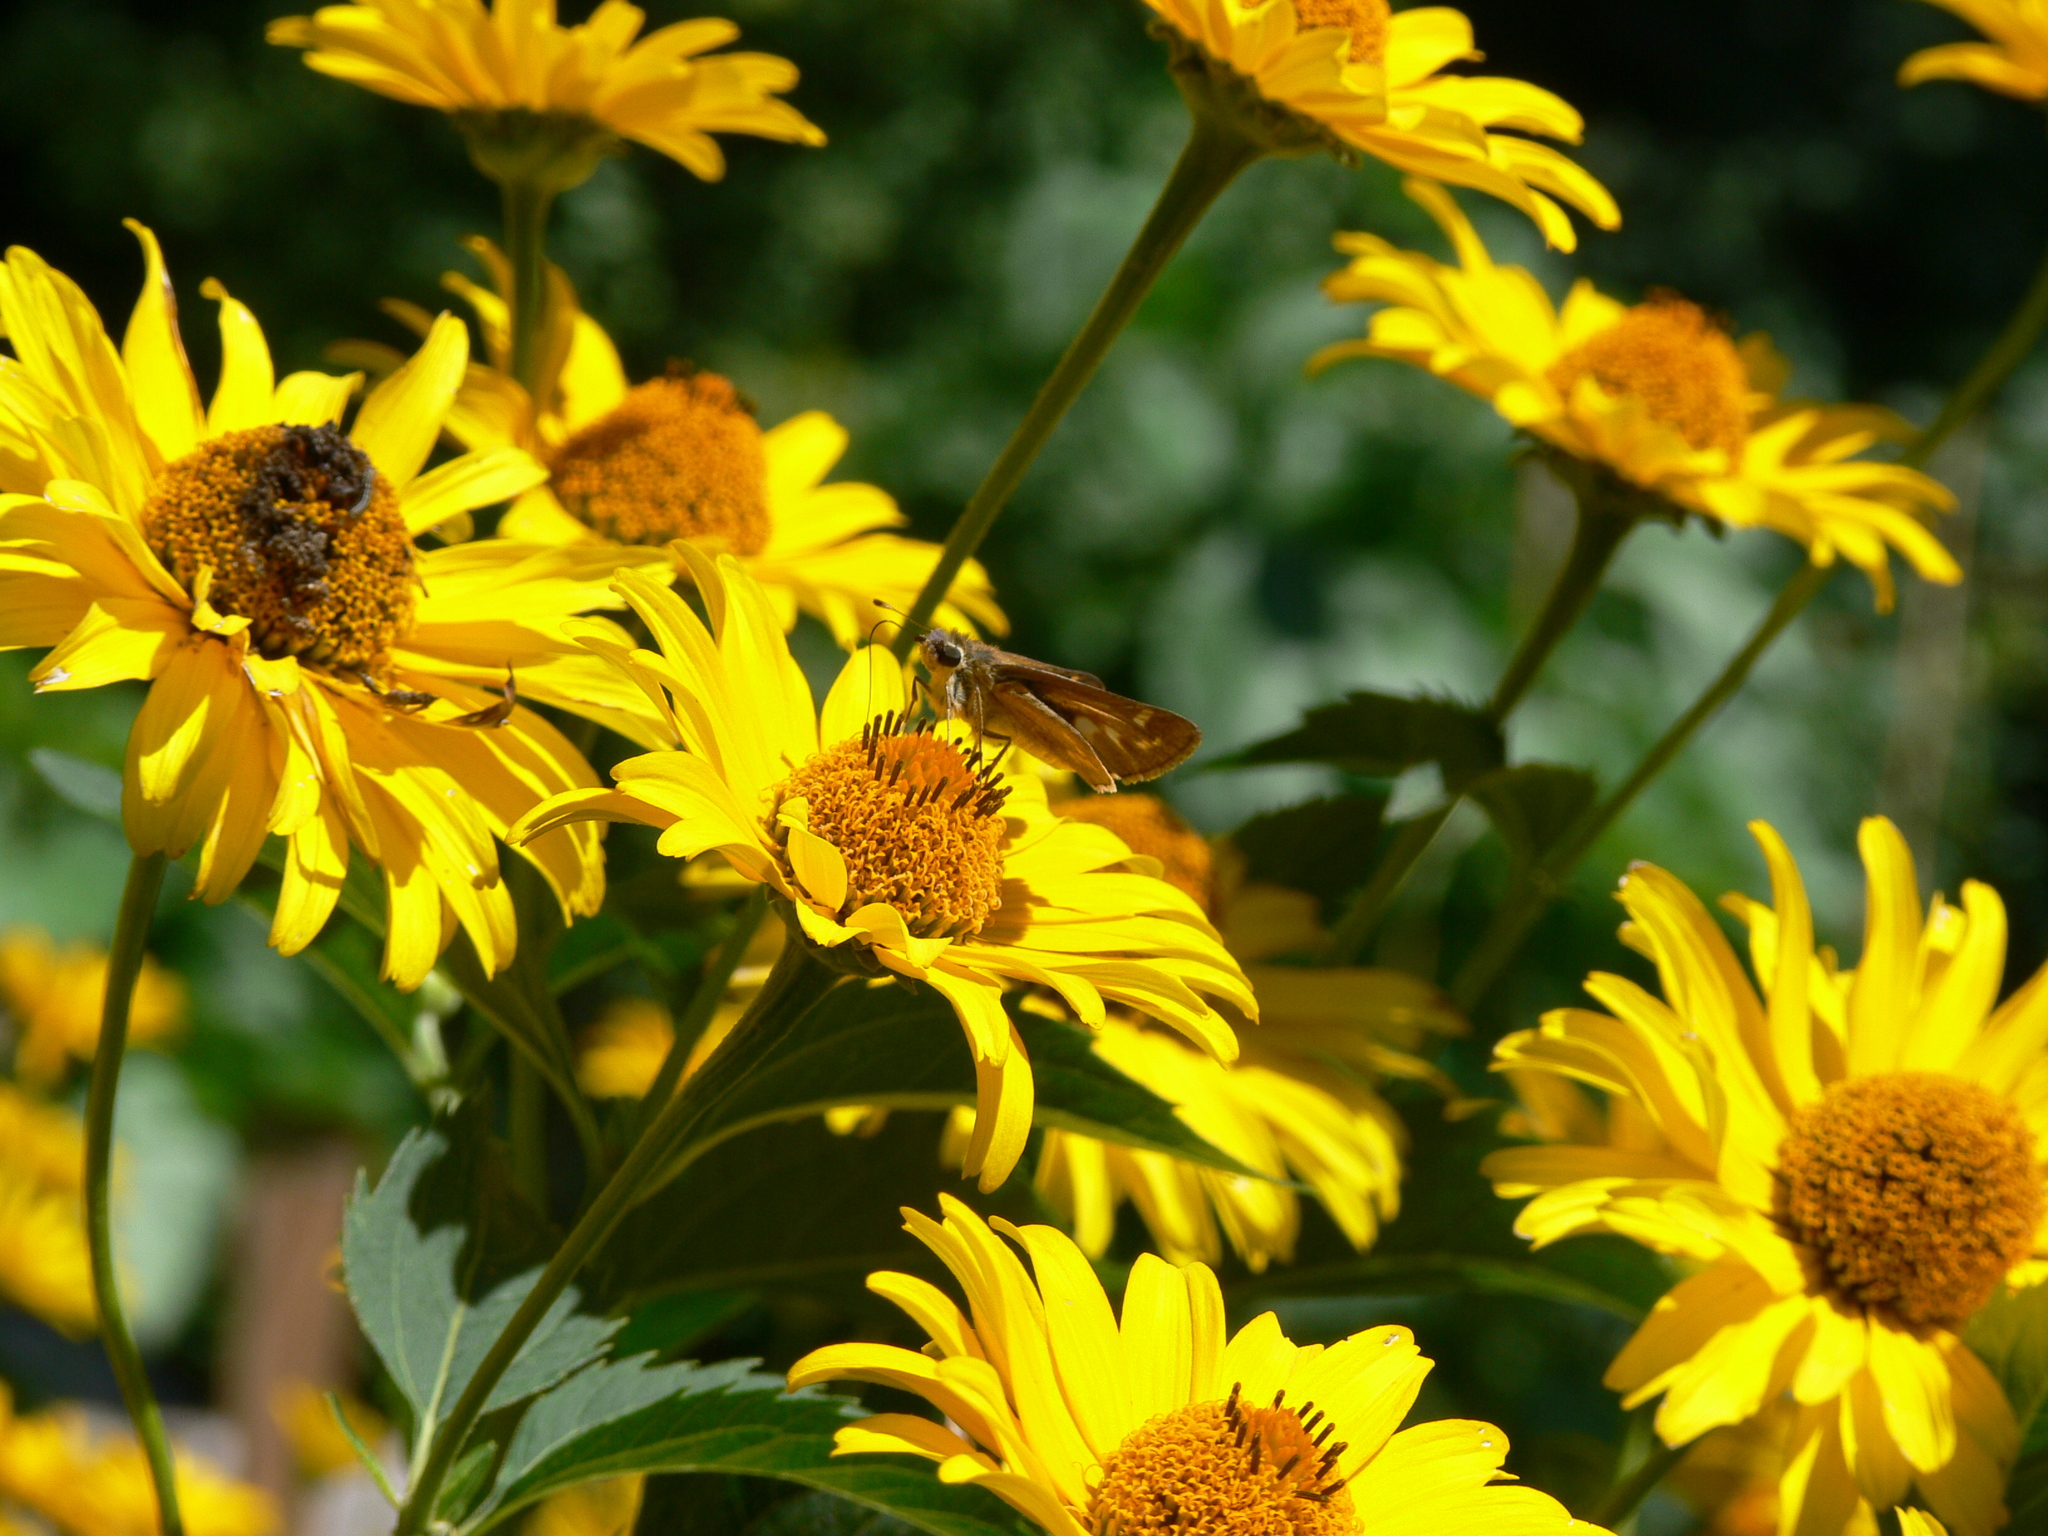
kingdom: Animalia
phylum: Arthropoda
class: Insecta
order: Lepidoptera
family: Hesperiidae
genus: Atalopedes
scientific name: Atalopedes
